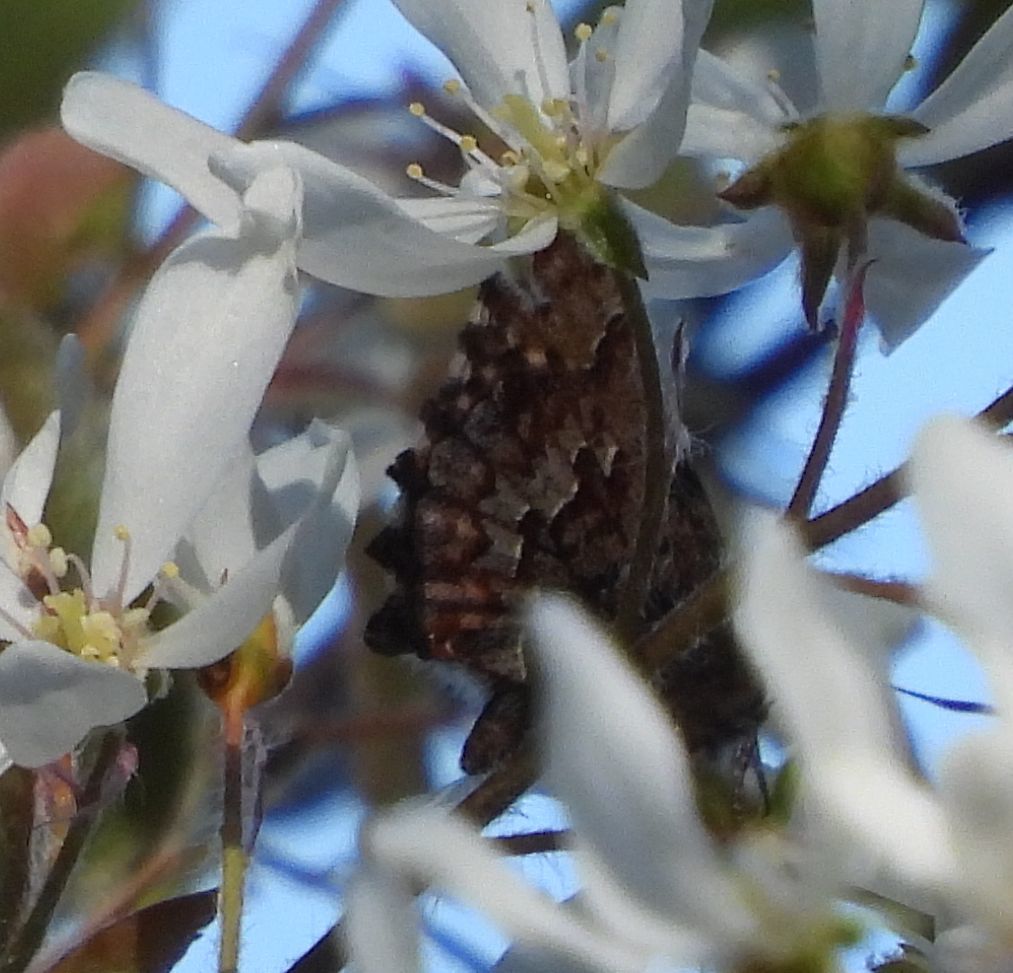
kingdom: Animalia
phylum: Arthropoda
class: Insecta
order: Lepidoptera
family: Lycaenidae
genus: Incisalia
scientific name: Incisalia niphon
